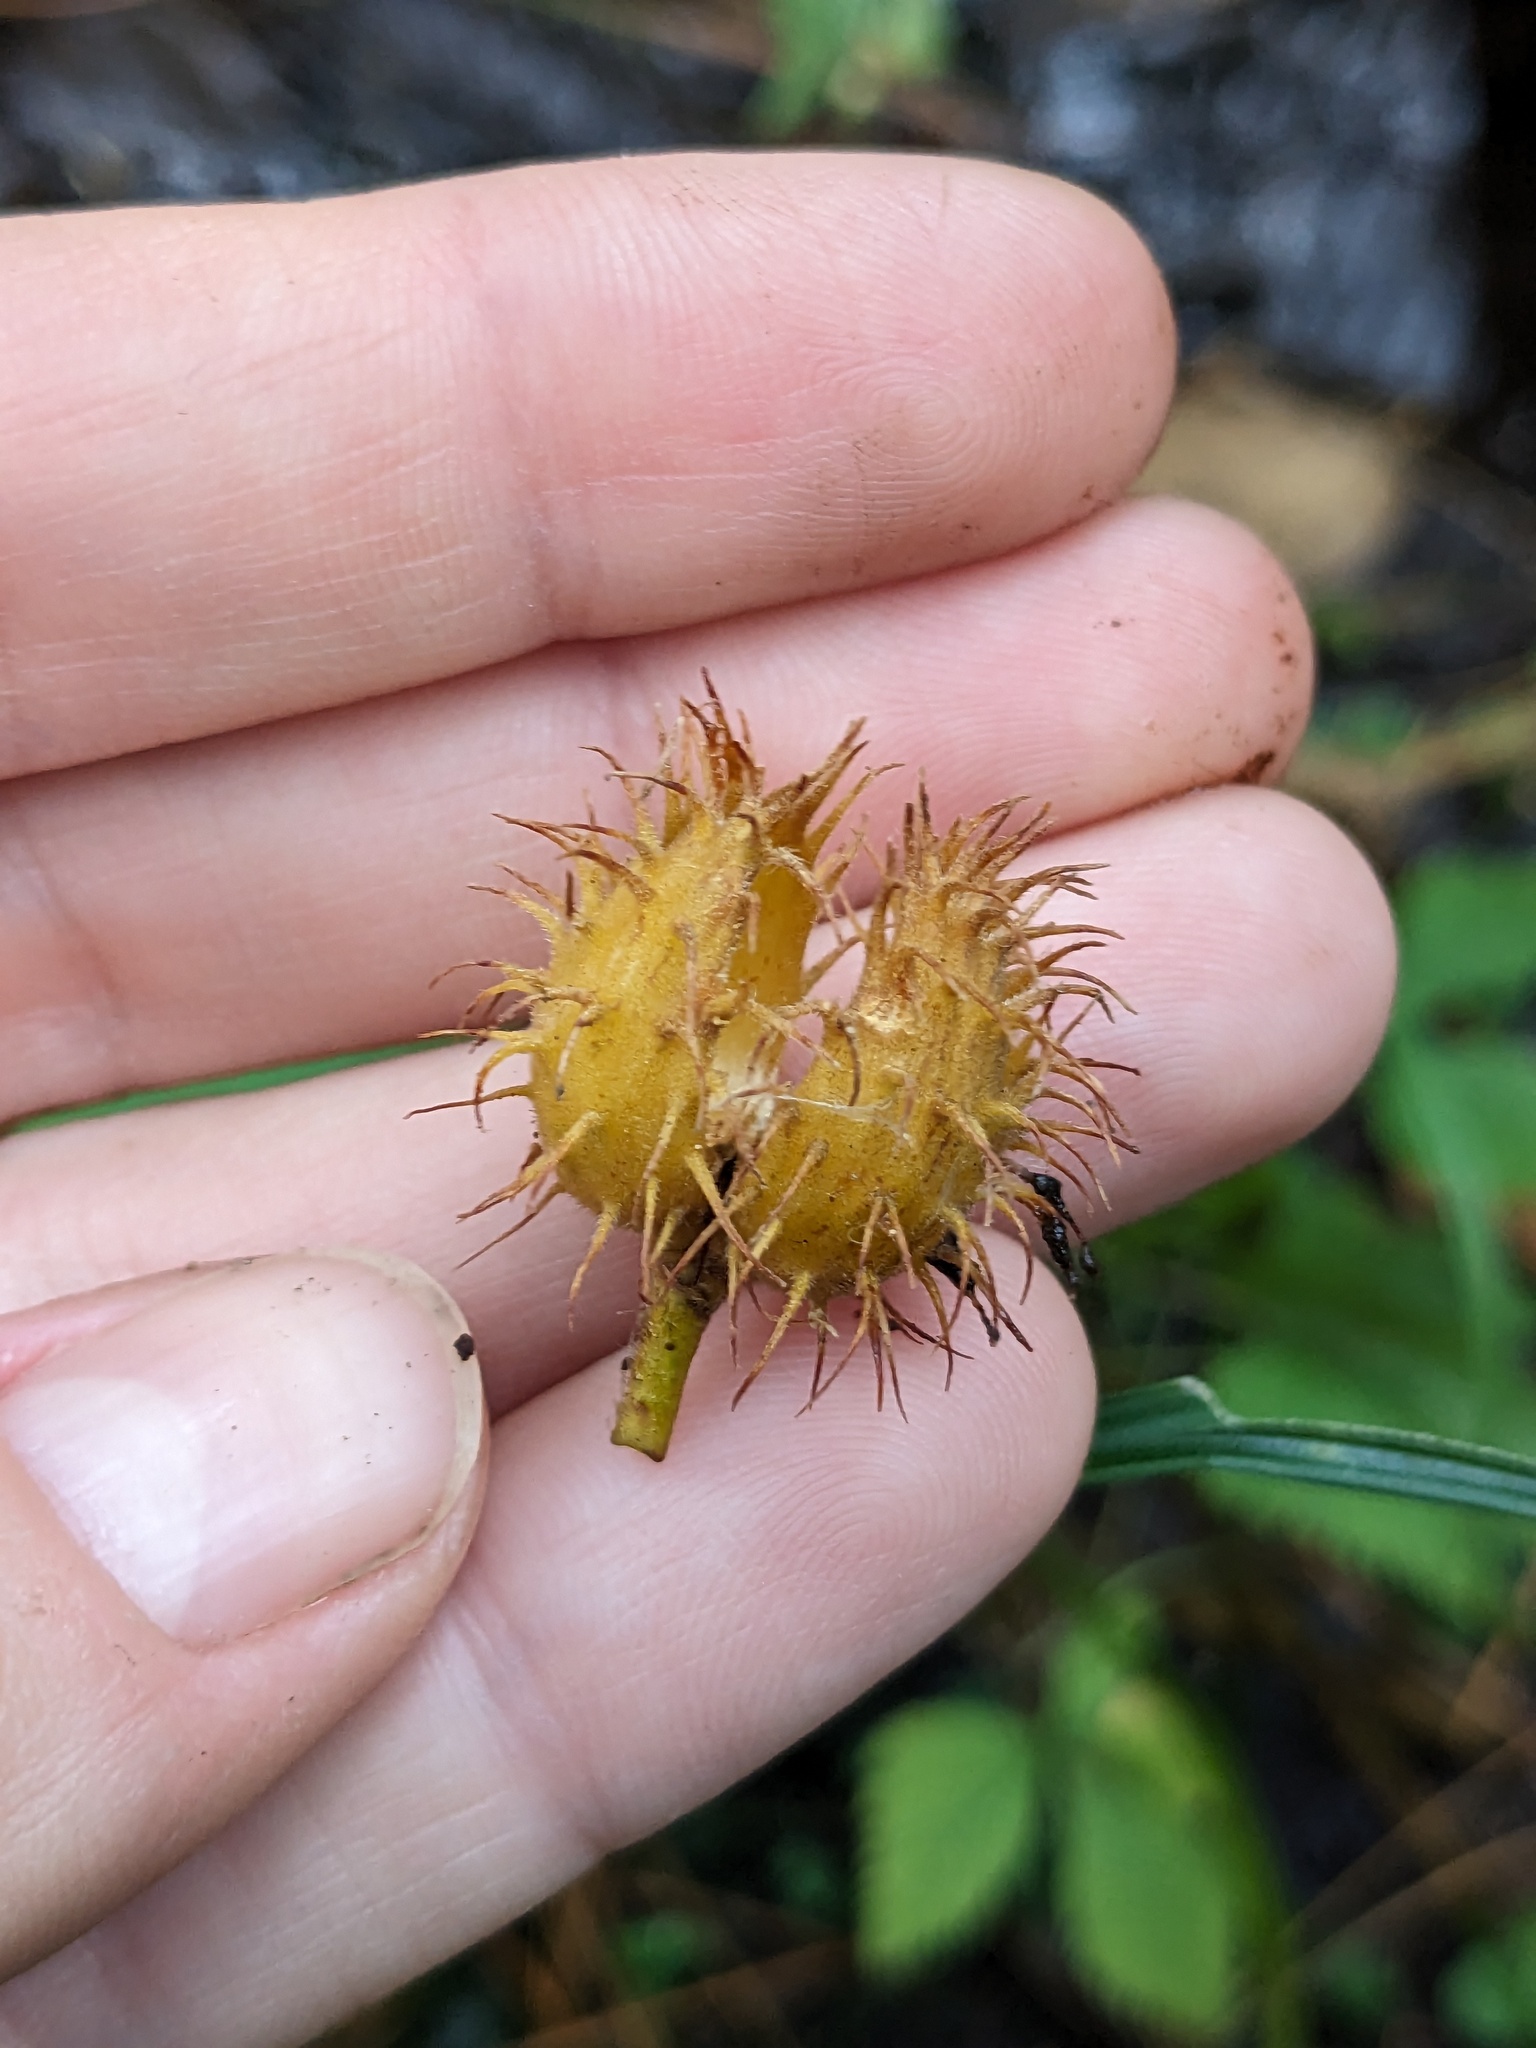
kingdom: Plantae
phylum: Tracheophyta
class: Magnoliopsida
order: Fagales
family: Fagaceae
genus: Fagus
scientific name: Fagus grandifolia
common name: American beech
